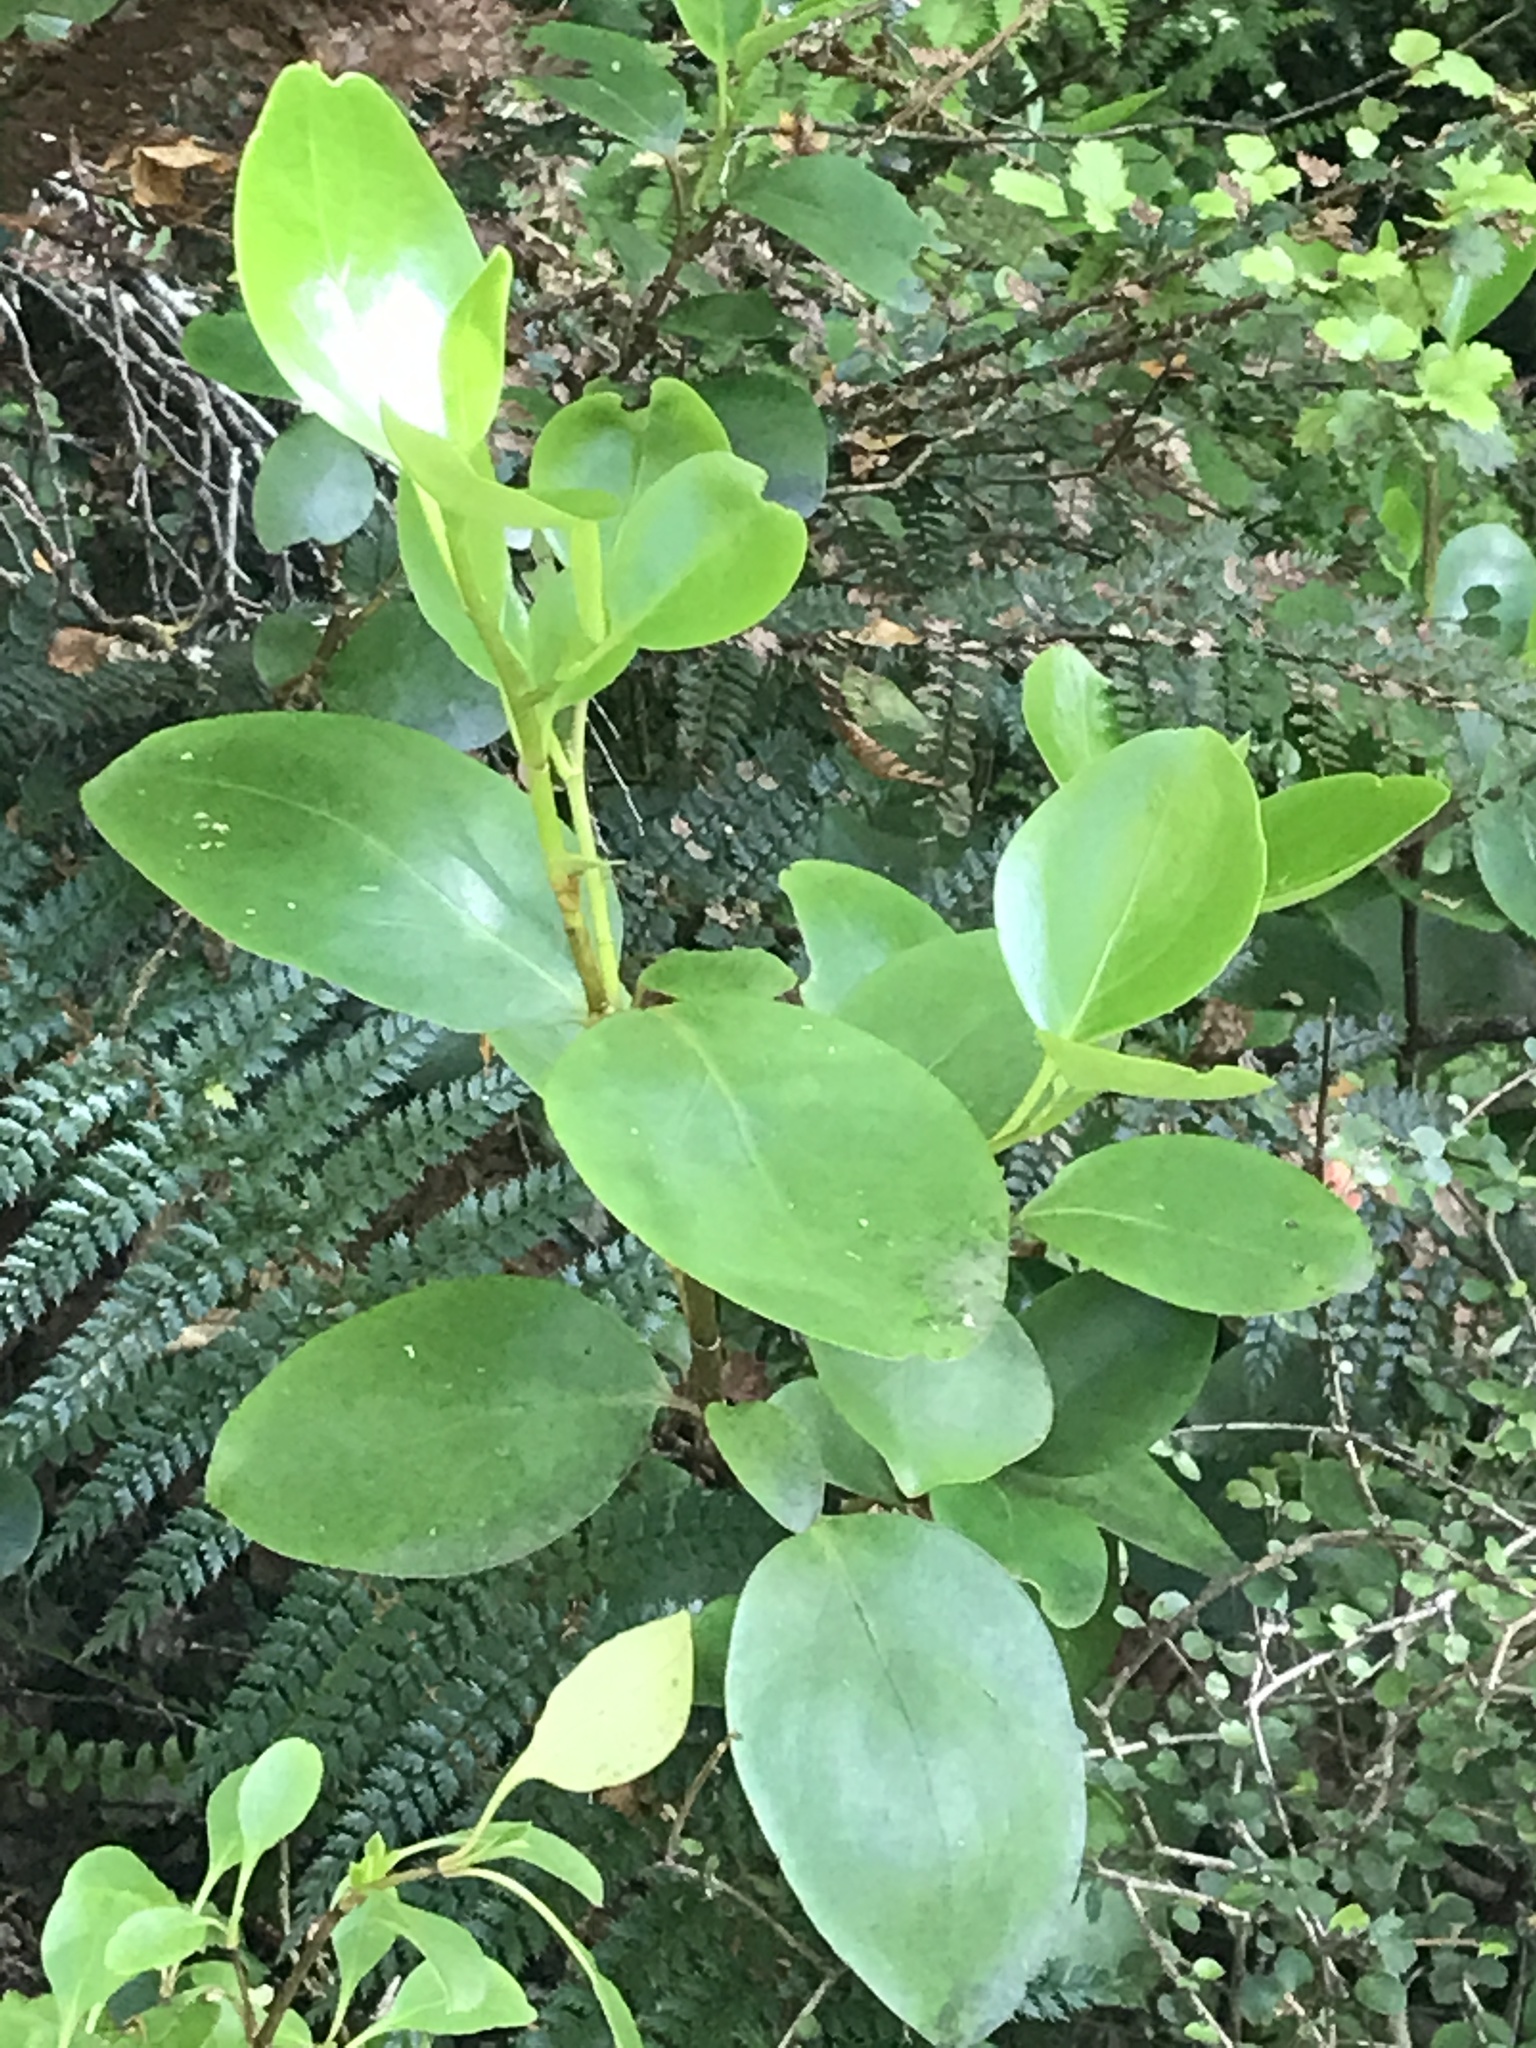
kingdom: Plantae
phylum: Tracheophyta
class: Magnoliopsida
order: Apiales
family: Griseliniaceae
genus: Griselinia
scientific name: Griselinia littoralis
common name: New zealand broadleaf
